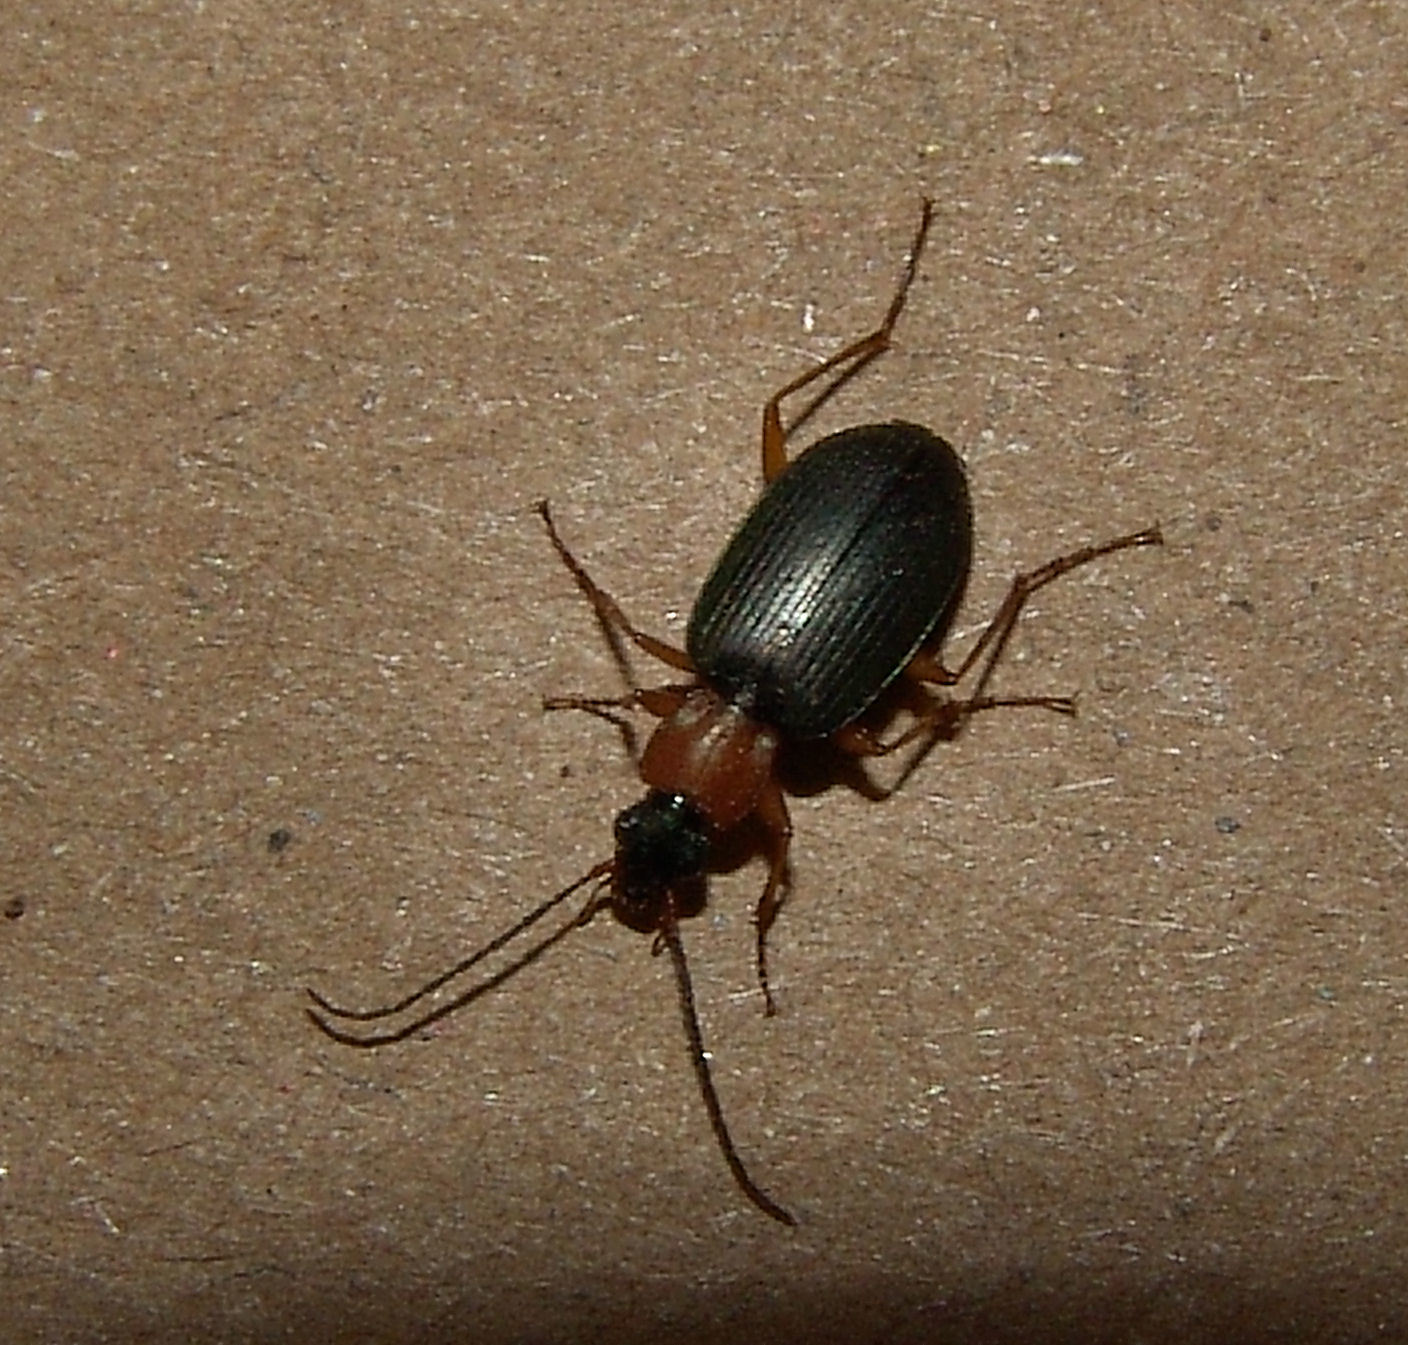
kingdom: Animalia
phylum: Arthropoda
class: Insecta
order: Coleoptera
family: Carabidae
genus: Agonum
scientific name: Agonum decorum
